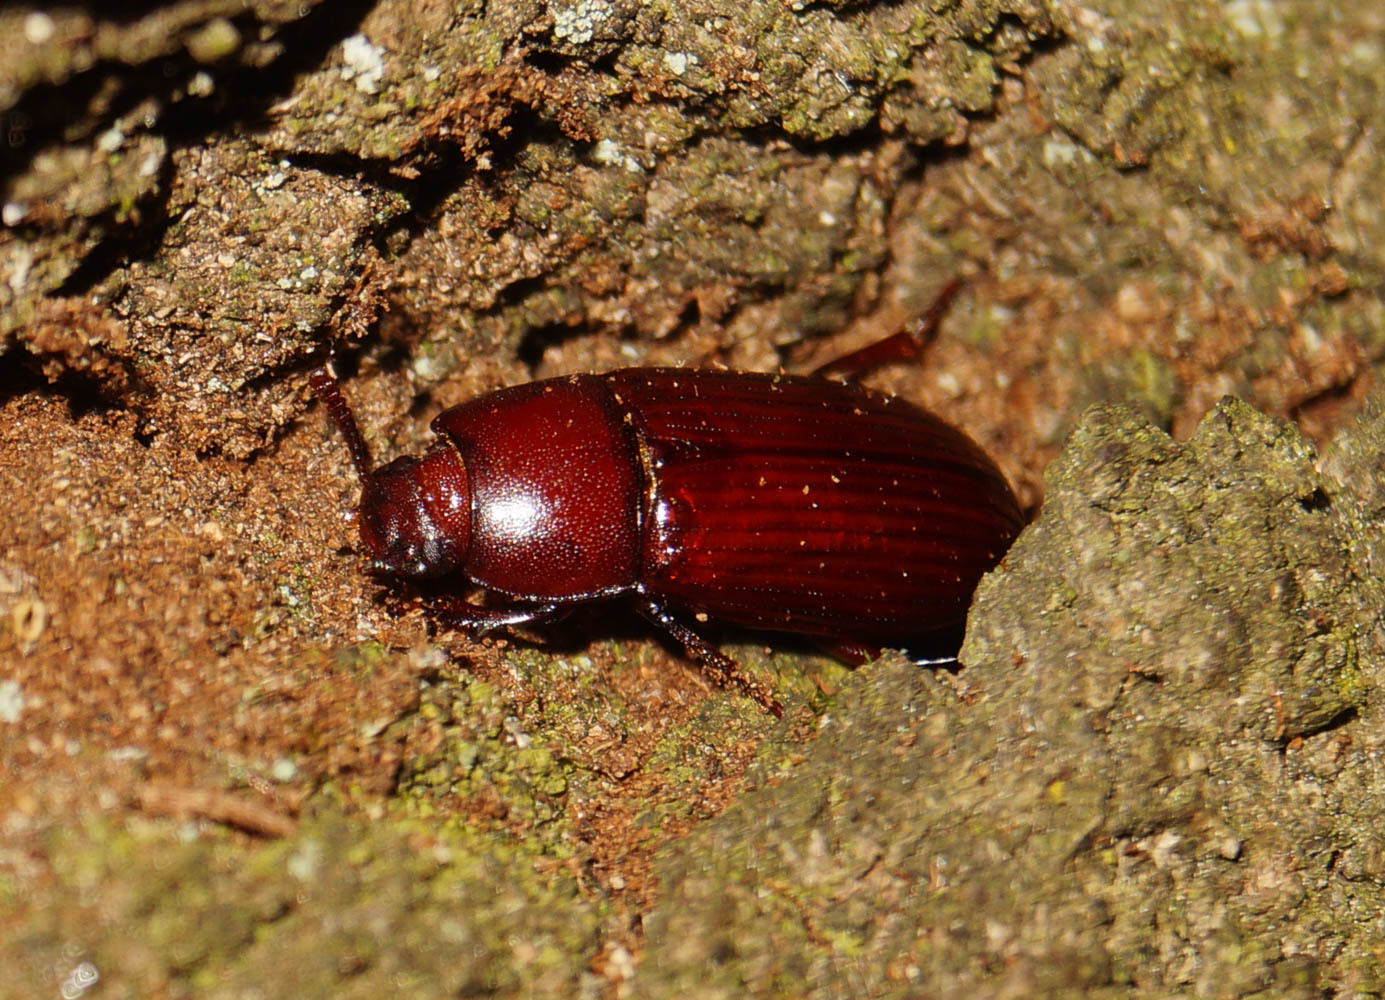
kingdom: Animalia
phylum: Arthropoda
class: Insecta
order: Coleoptera
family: Tenebrionidae
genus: Uloma
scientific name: Uloma culinaris
